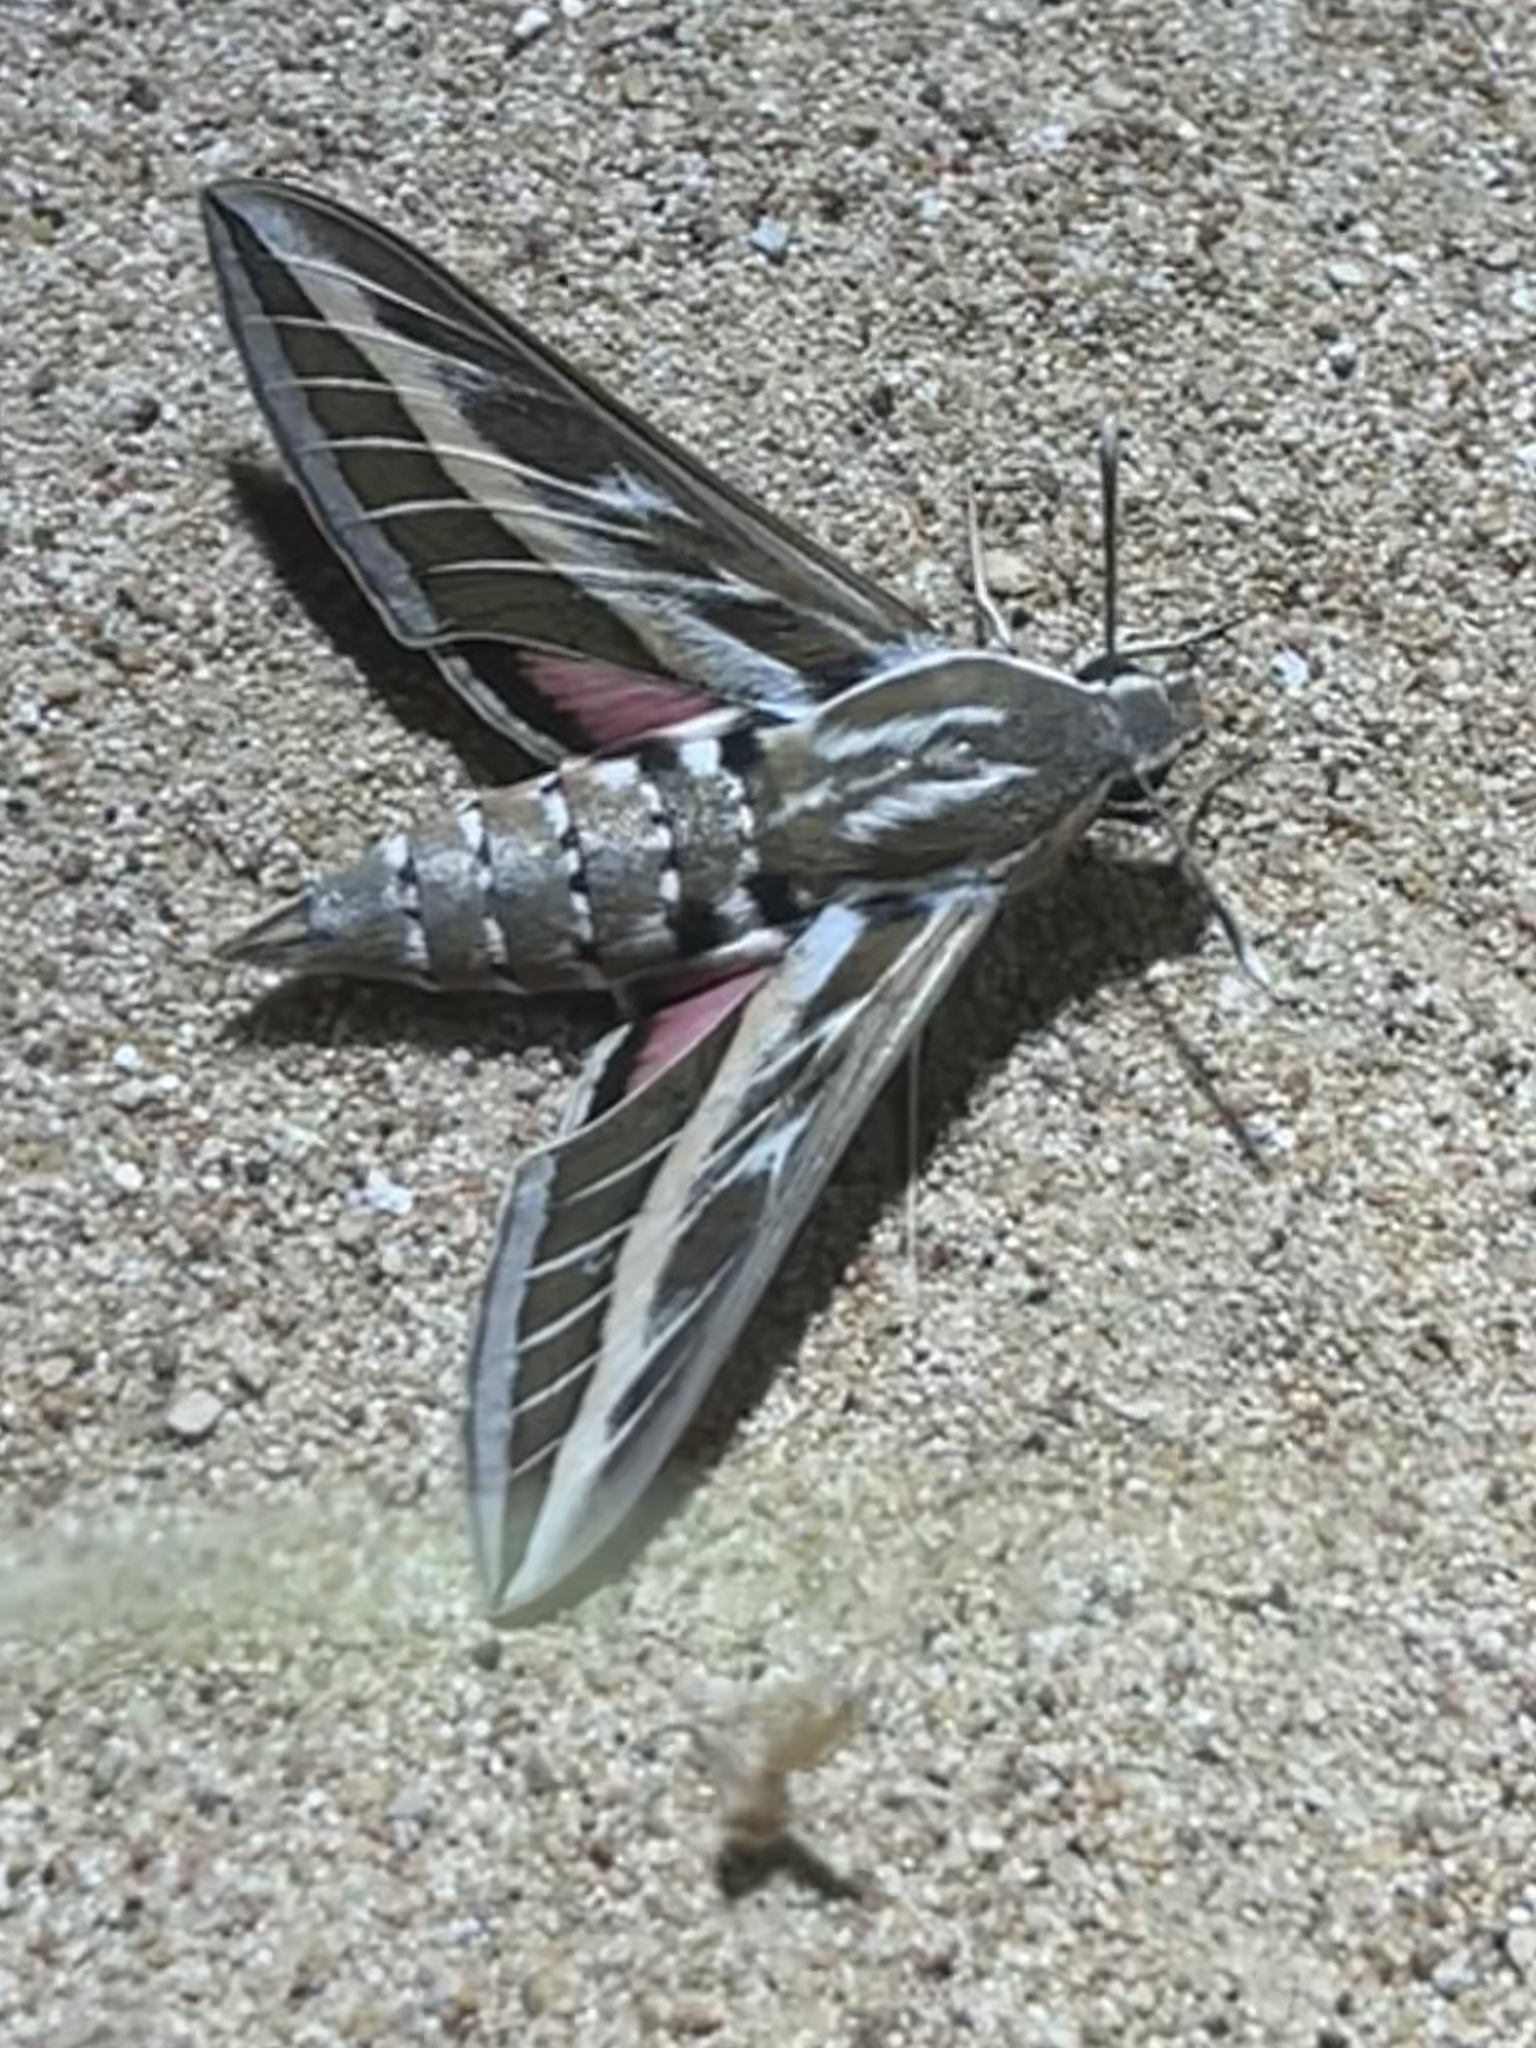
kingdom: Animalia
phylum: Arthropoda
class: Insecta
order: Lepidoptera
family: Sphingidae
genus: Hyles
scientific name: Hyles livornica
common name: Striped hawk-moth
